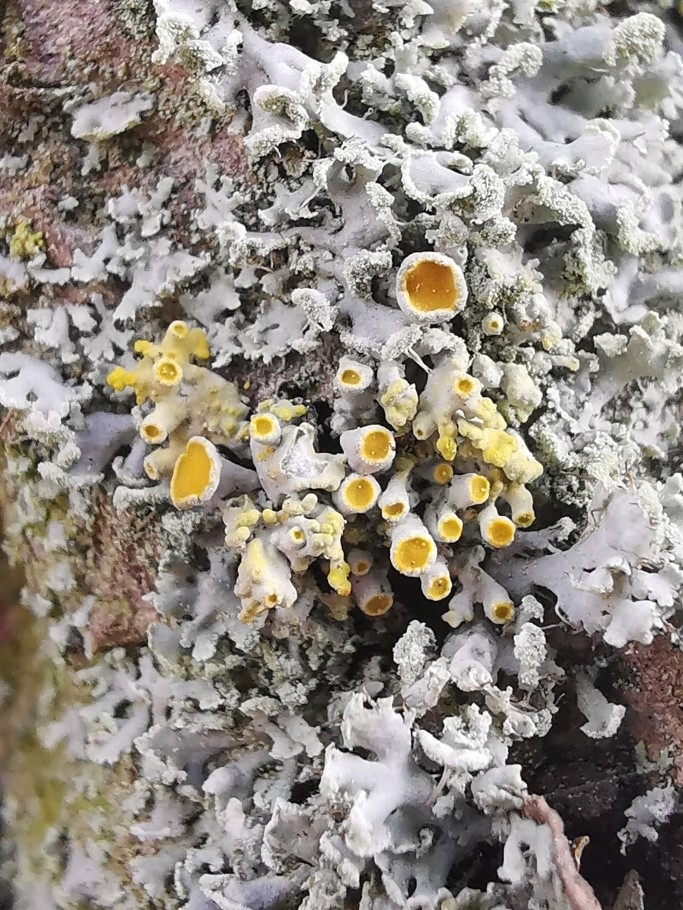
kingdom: Fungi
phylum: Ascomycota
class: Lecanoromycetes
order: Teloschistales
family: Teloschistaceae
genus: Polycauliona
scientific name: Polycauliona polycarpa
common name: Pin-cushion sunburst lichen
